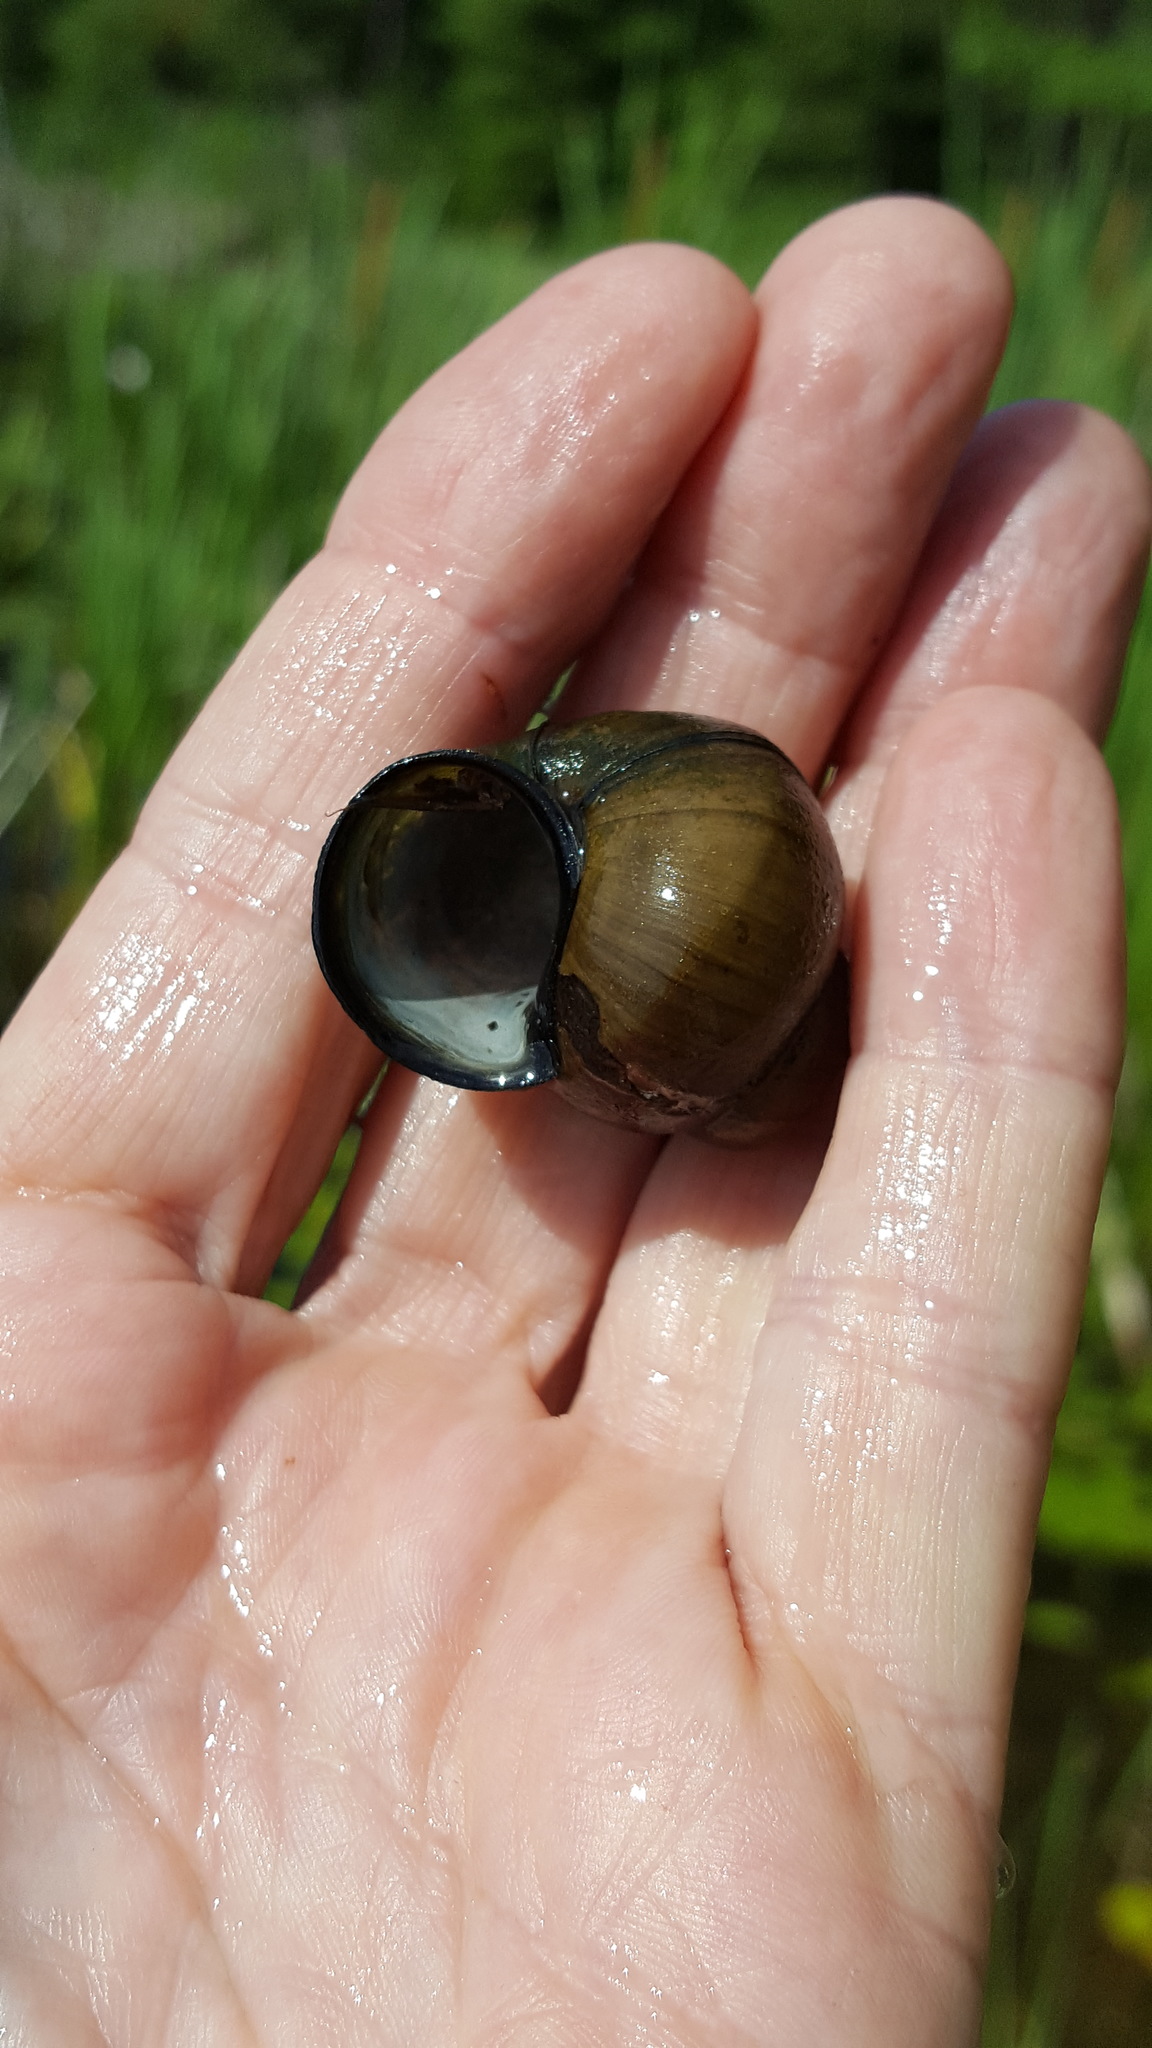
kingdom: Animalia
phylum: Mollusca
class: Gastropoda
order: Architaenioglossa
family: Viviparidae
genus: Cipangopaludina
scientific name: Cipangopaludina chinensis
